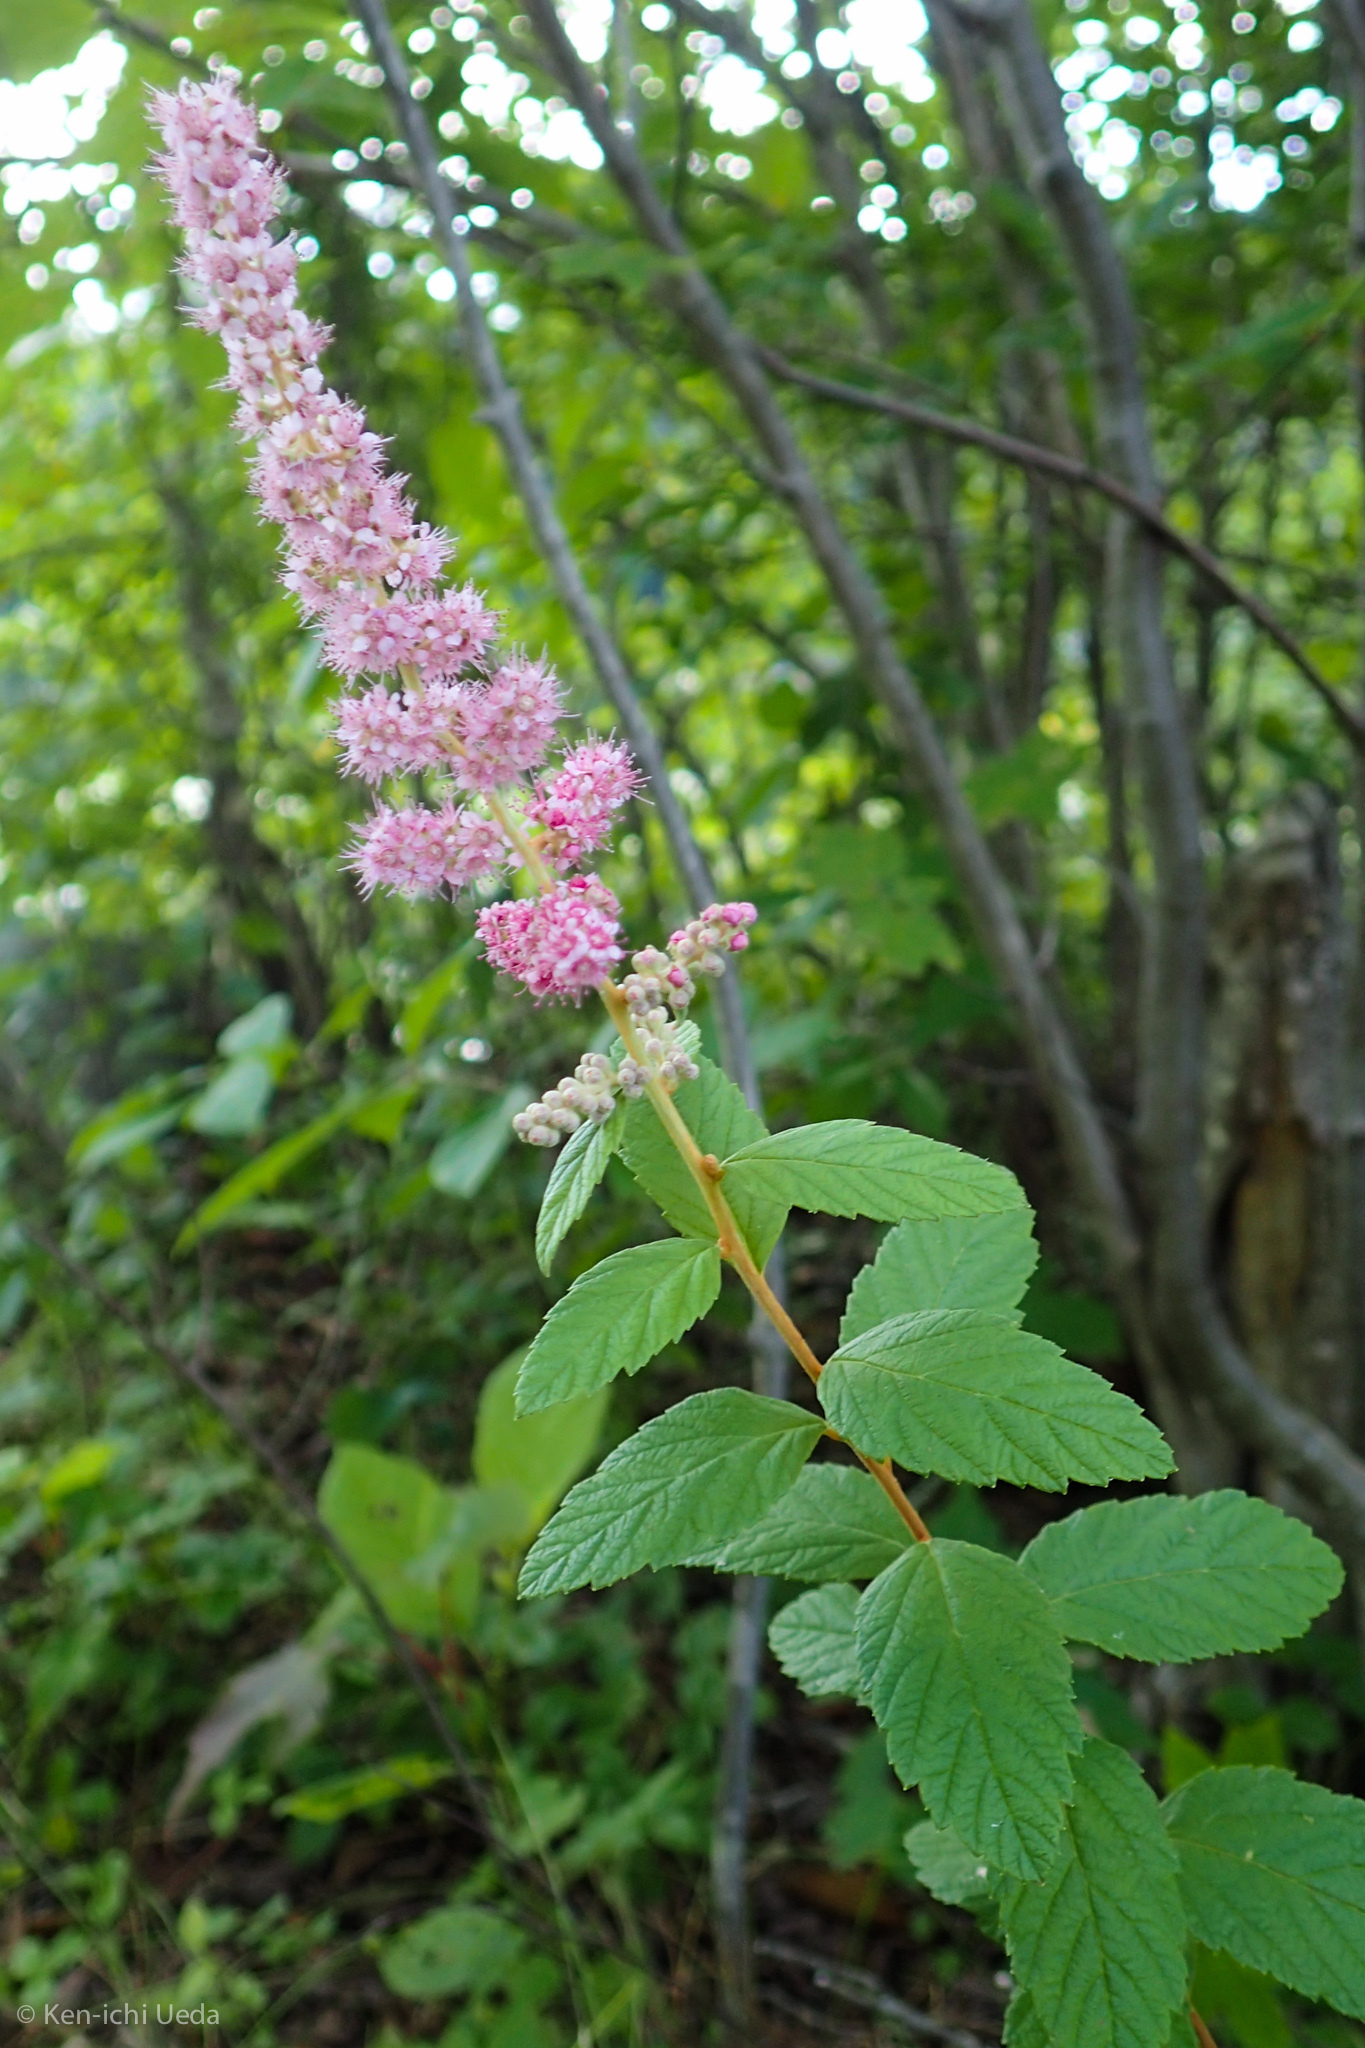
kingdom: Plantae
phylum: Tracheophyta
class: Magnoliopsida
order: Rosales
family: Rosaceae
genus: Spiraea
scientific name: Spiraea tomentosa
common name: Hardhack
